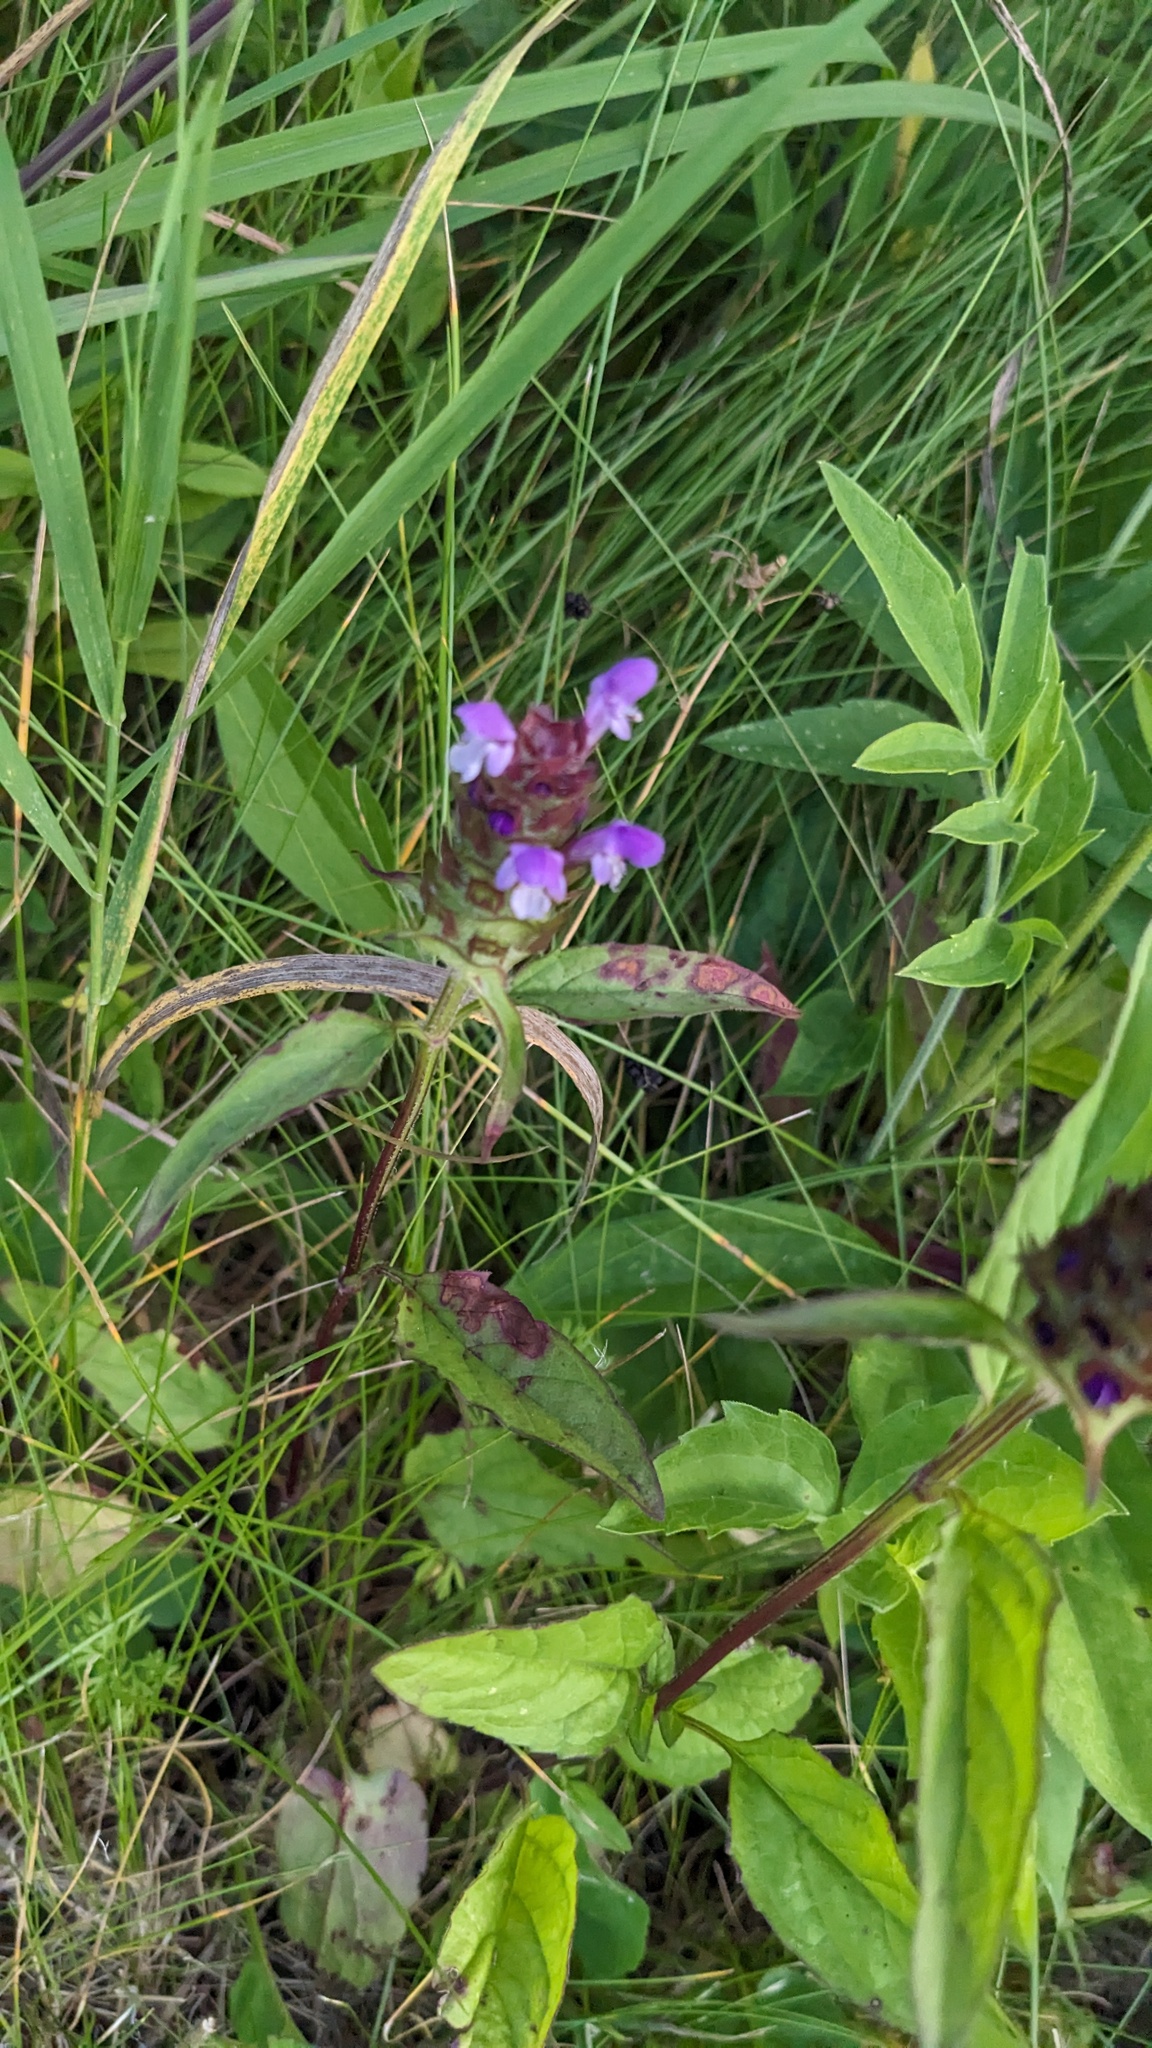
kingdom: Plantae
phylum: Tracheophyta
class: Magnoliopsida
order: Lamiales
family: Lamiaceae
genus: Prunella
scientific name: Prunella vulgaris
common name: Heal-all
